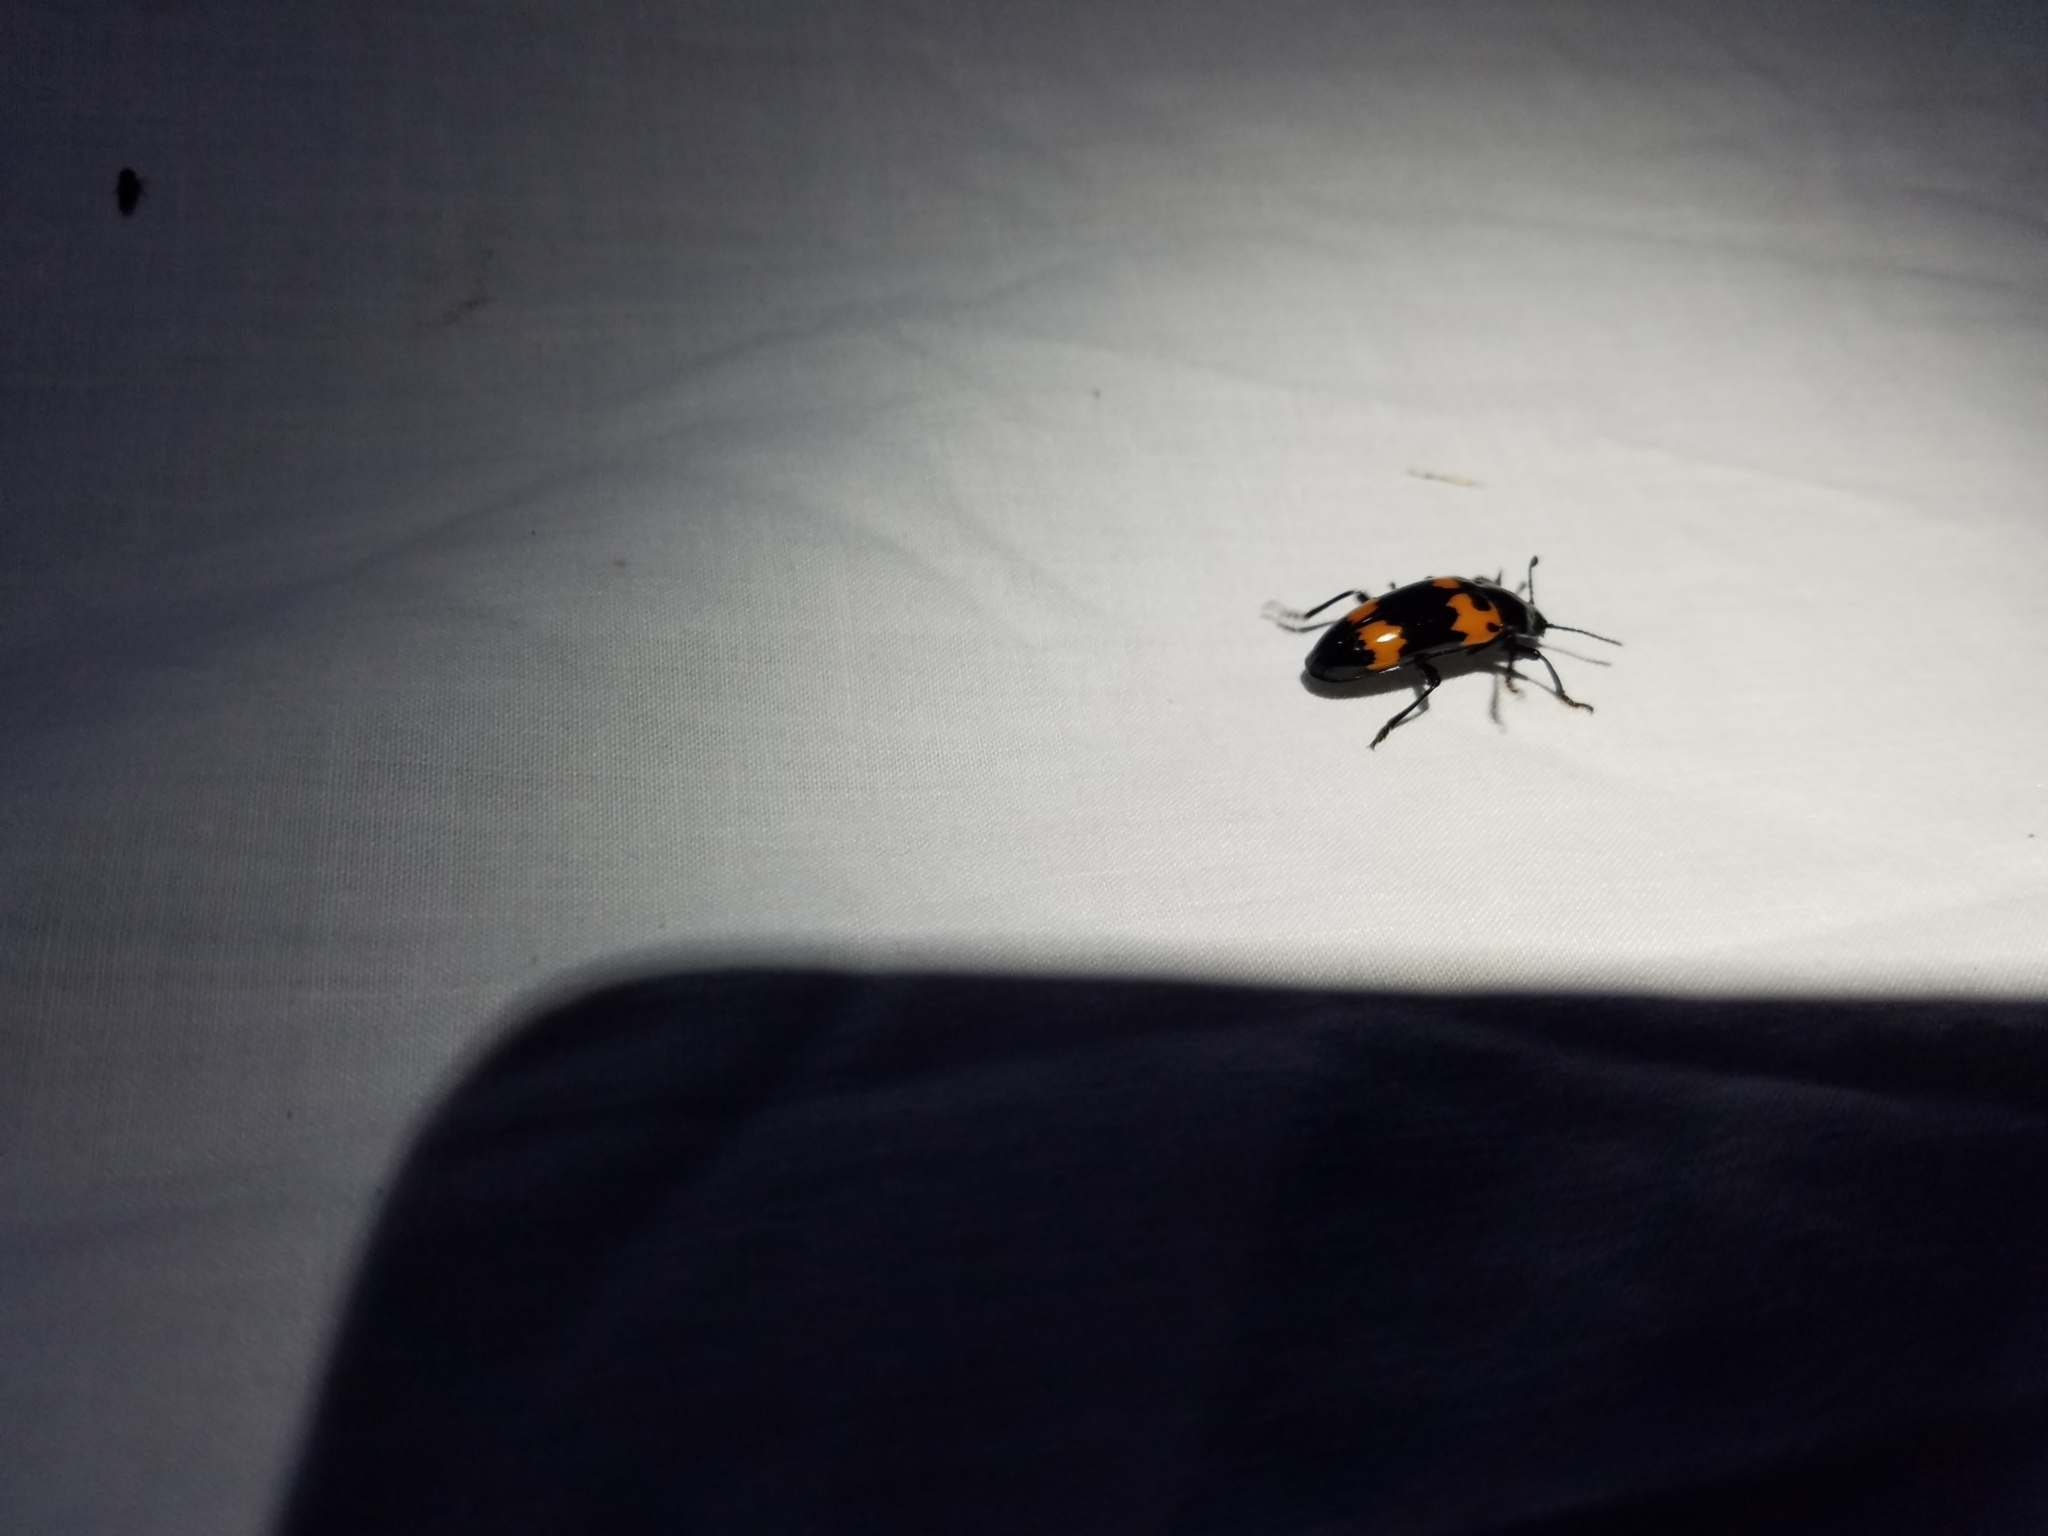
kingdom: Animalia
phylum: Arthropoda
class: Insecta
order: Coleoptera
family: Erotylidae
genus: Megalodacne
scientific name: Megalodacne heros
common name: Pleasing fungus beetle
